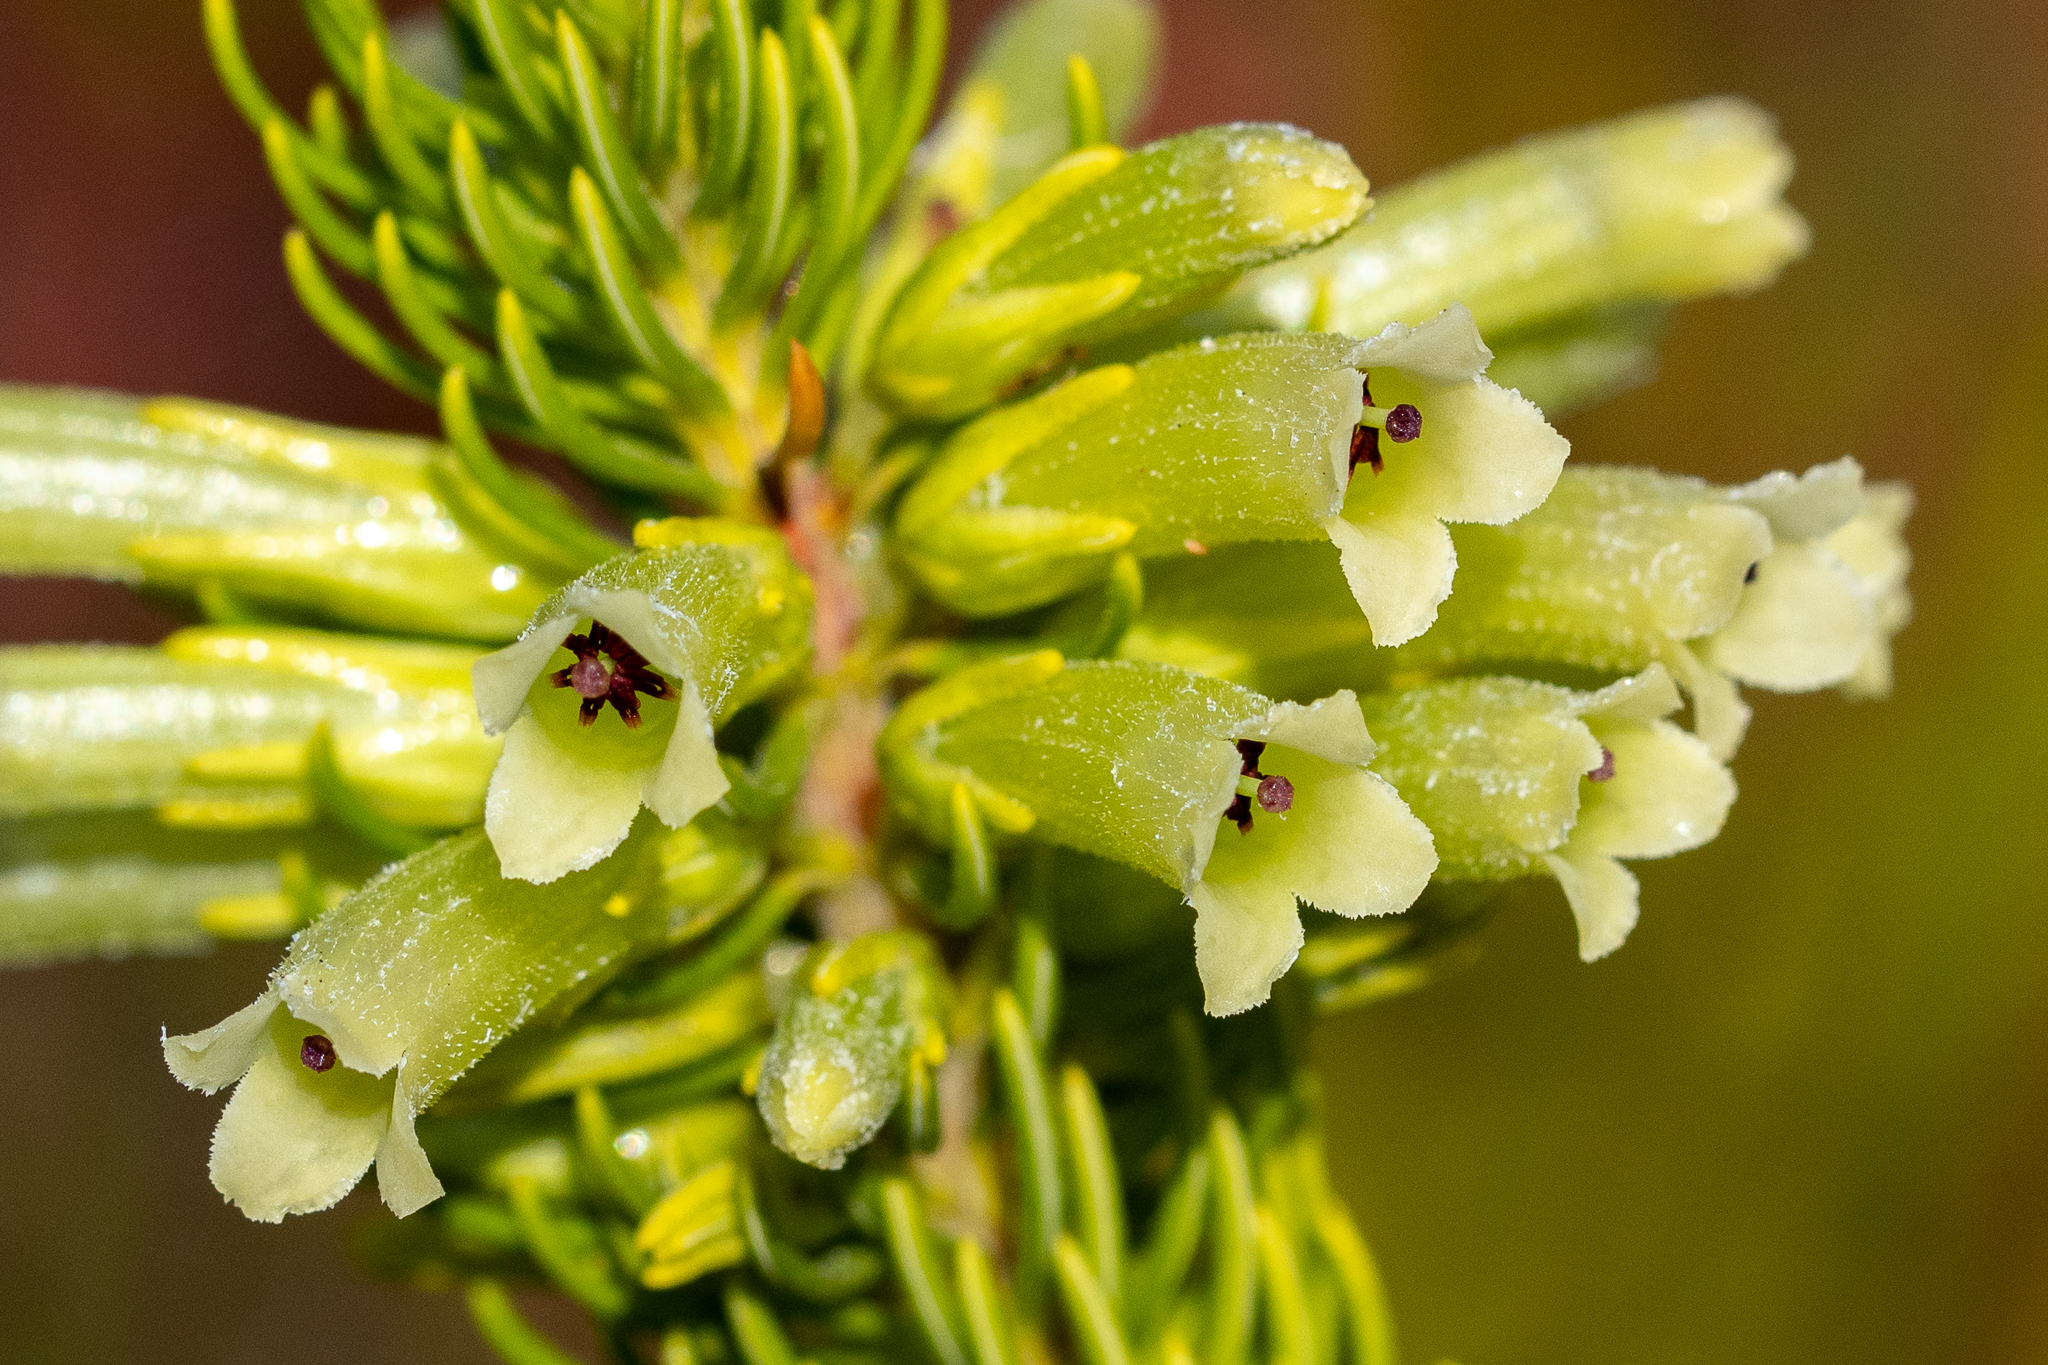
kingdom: Plantae
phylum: Tracheophyta
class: Magnoliopsida
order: Ericales
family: Ericaceae
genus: Erica
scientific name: Erica viscaria
